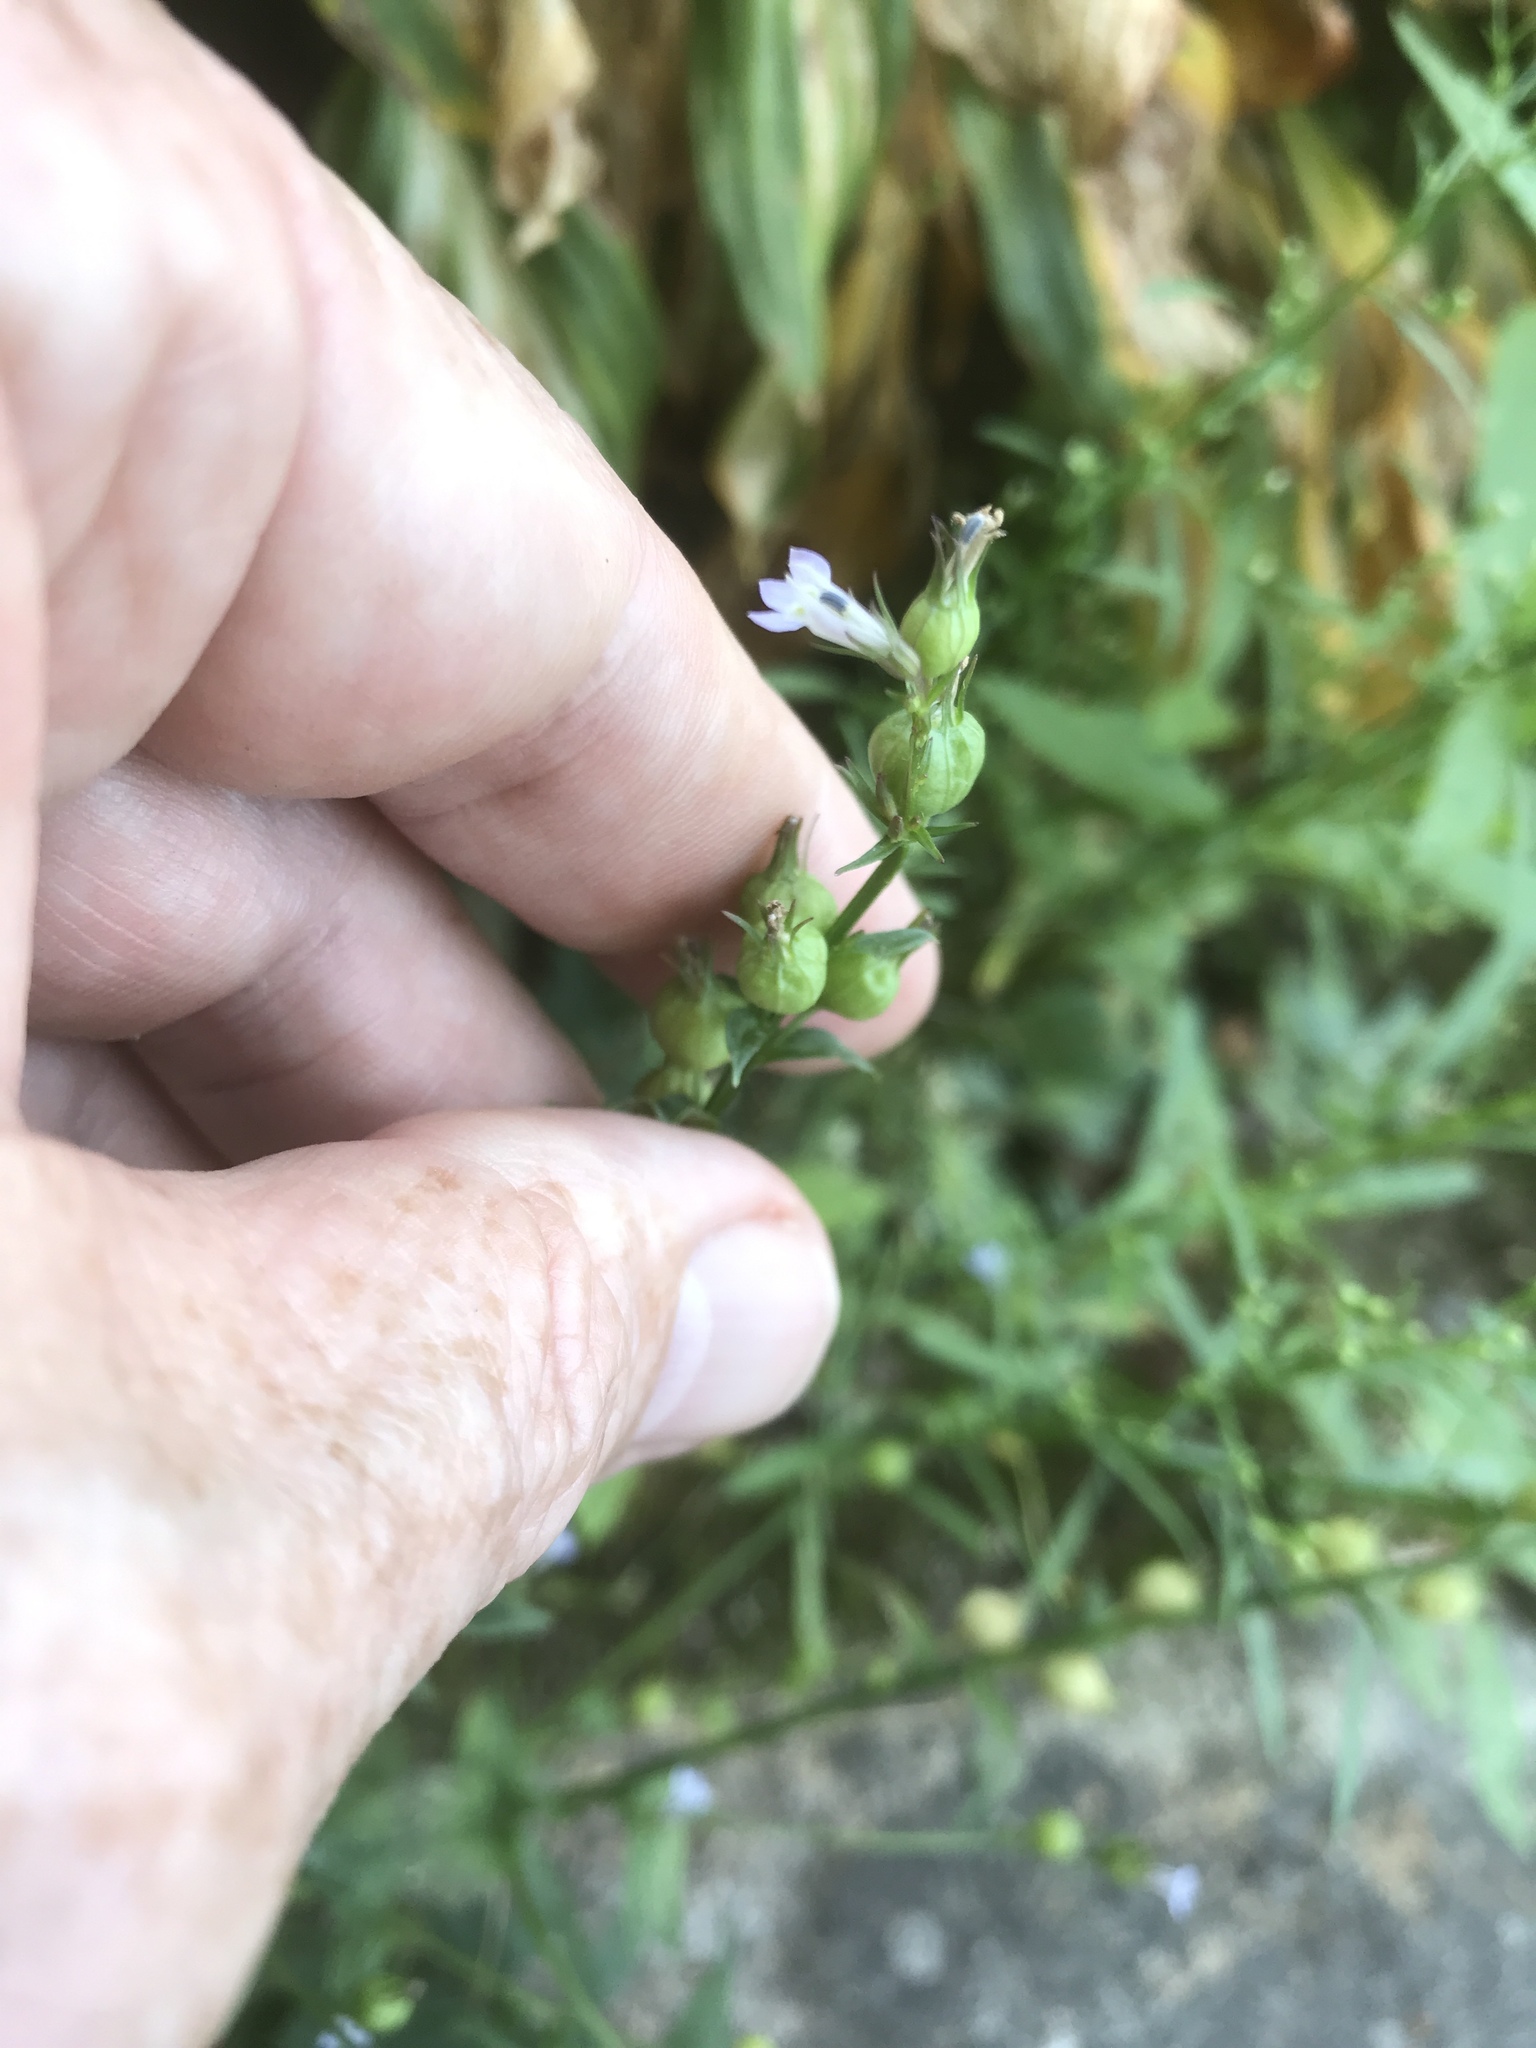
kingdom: Plantae
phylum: Tracheophyta
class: Magnoliopsida
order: Asterales
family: Campanulaceae
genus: Lobelia
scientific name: Lobelia inflata
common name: Indian tobacco
